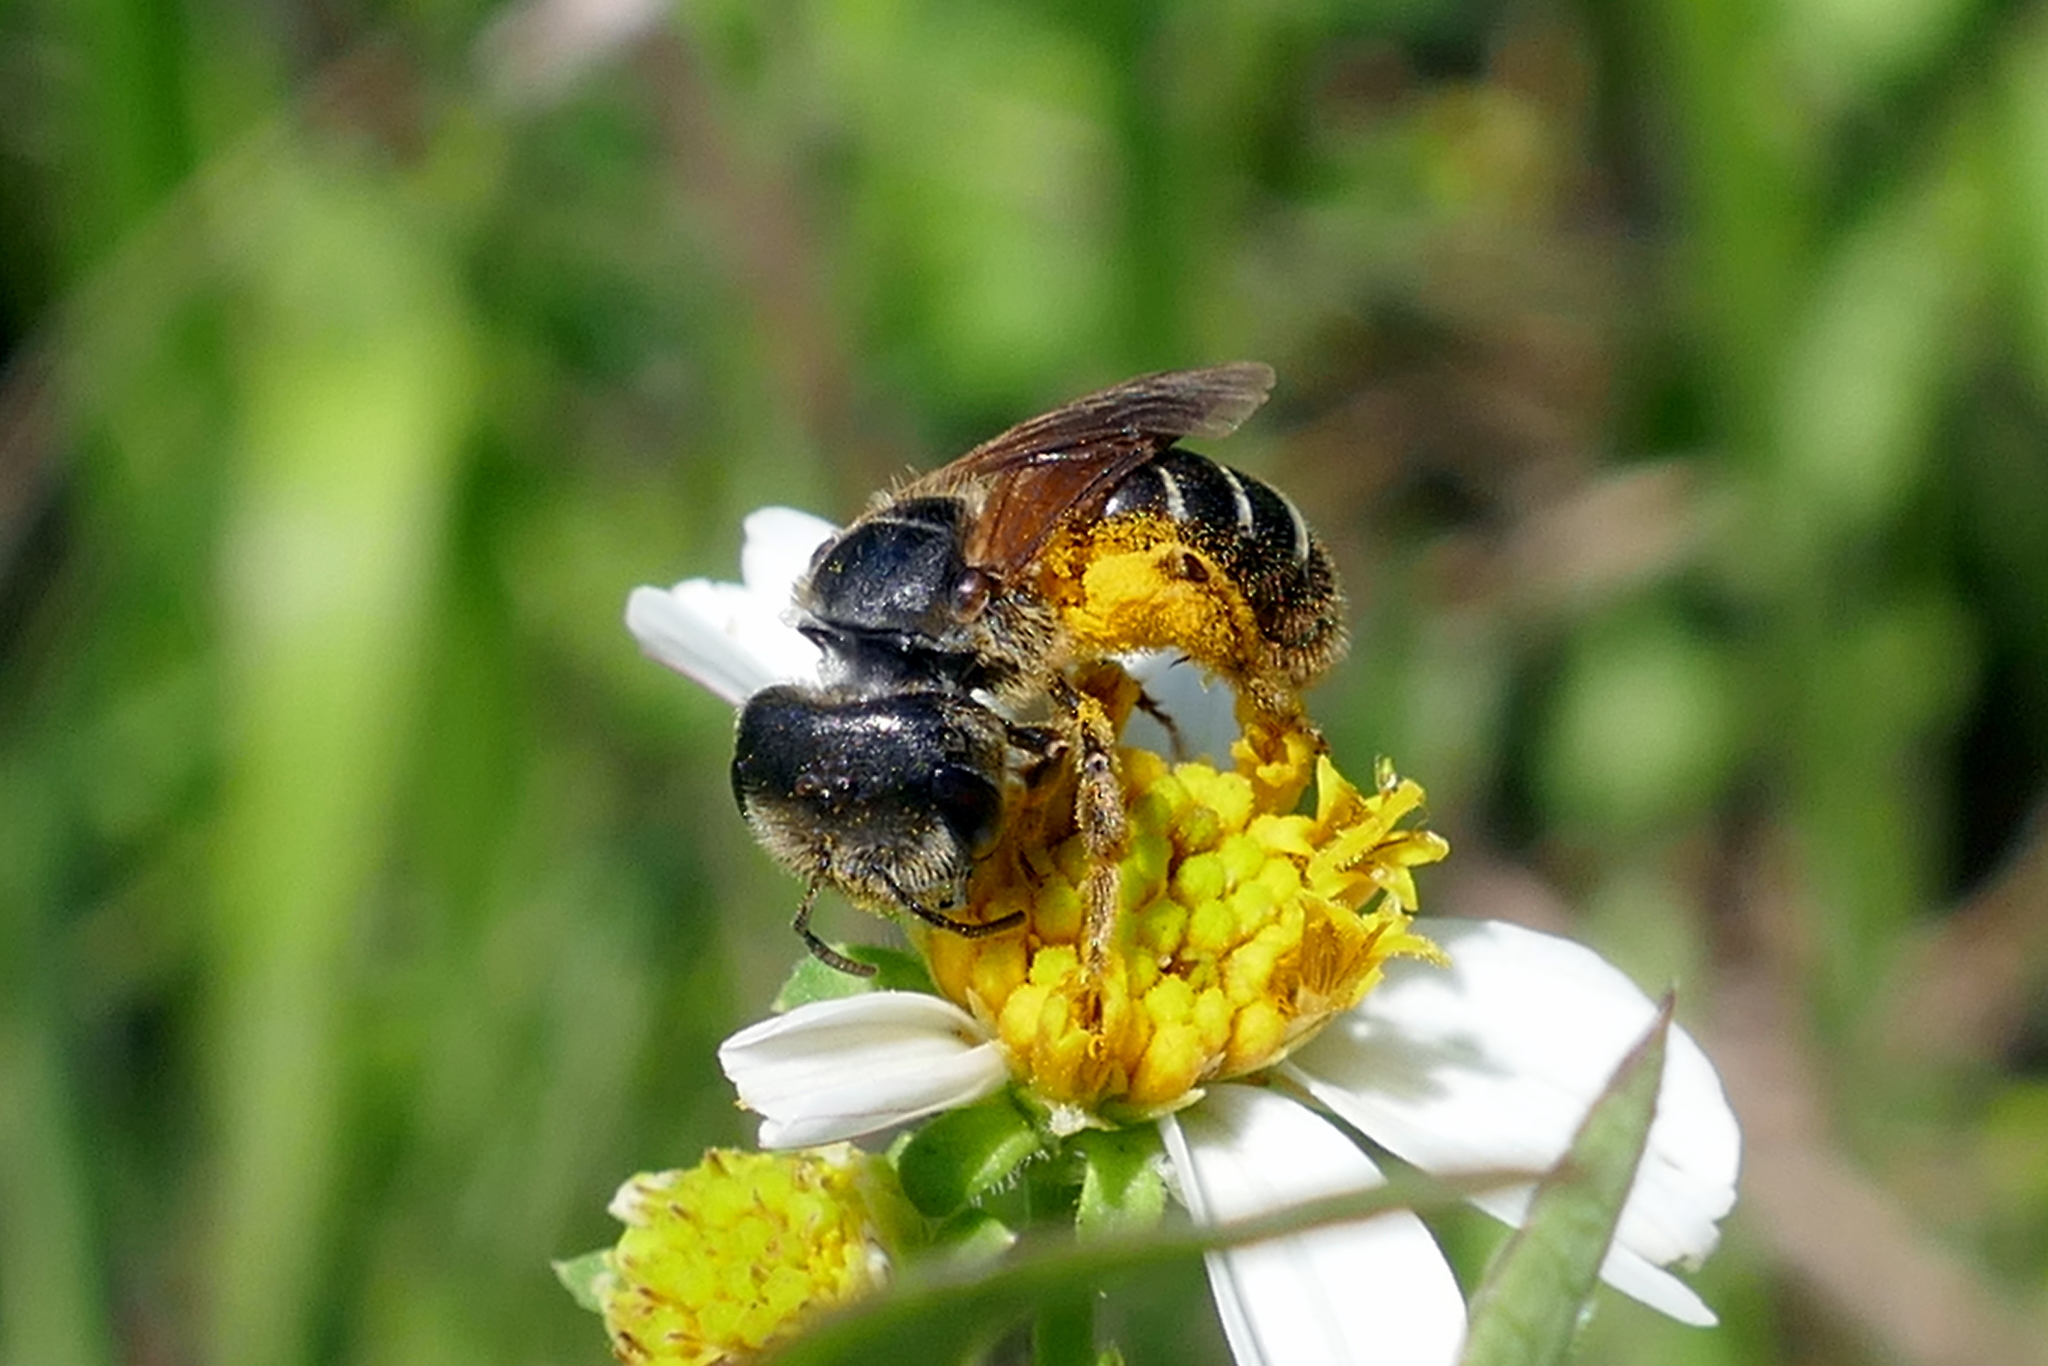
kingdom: Animalia
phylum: Arthropoda
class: Insecta
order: Hymenoptera
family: Halictidae
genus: Halictus
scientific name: Halictus poeyi
